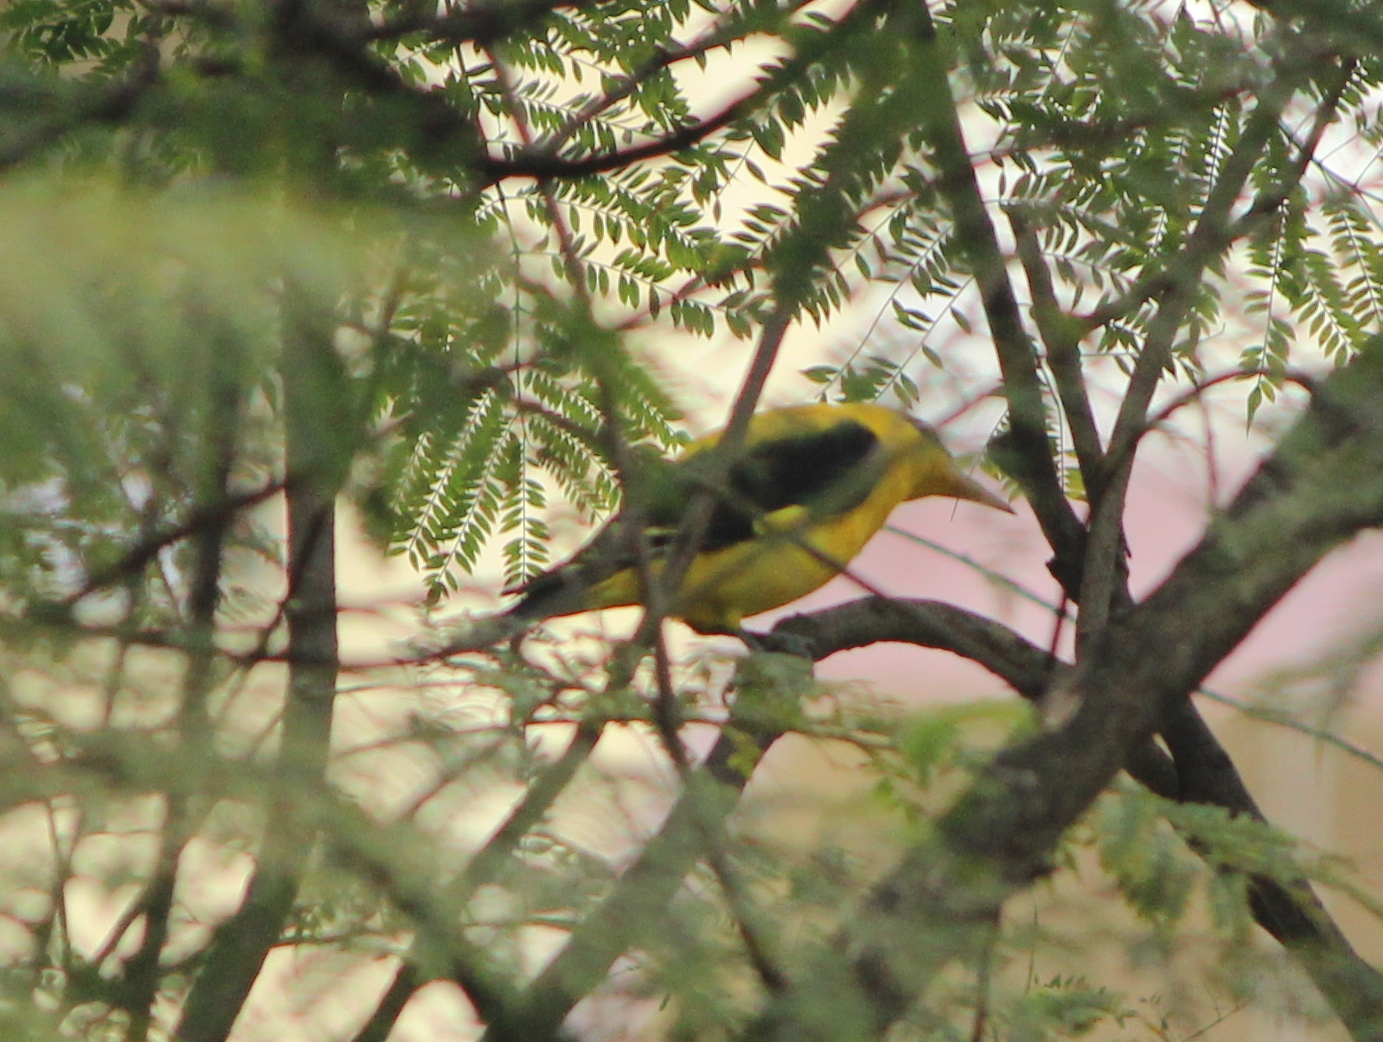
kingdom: Animalia
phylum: Chordata
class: Aves
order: Passeriformes
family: Oriolidae
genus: Oriolus
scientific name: Oriolus kundoo
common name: Indian golden oriole
